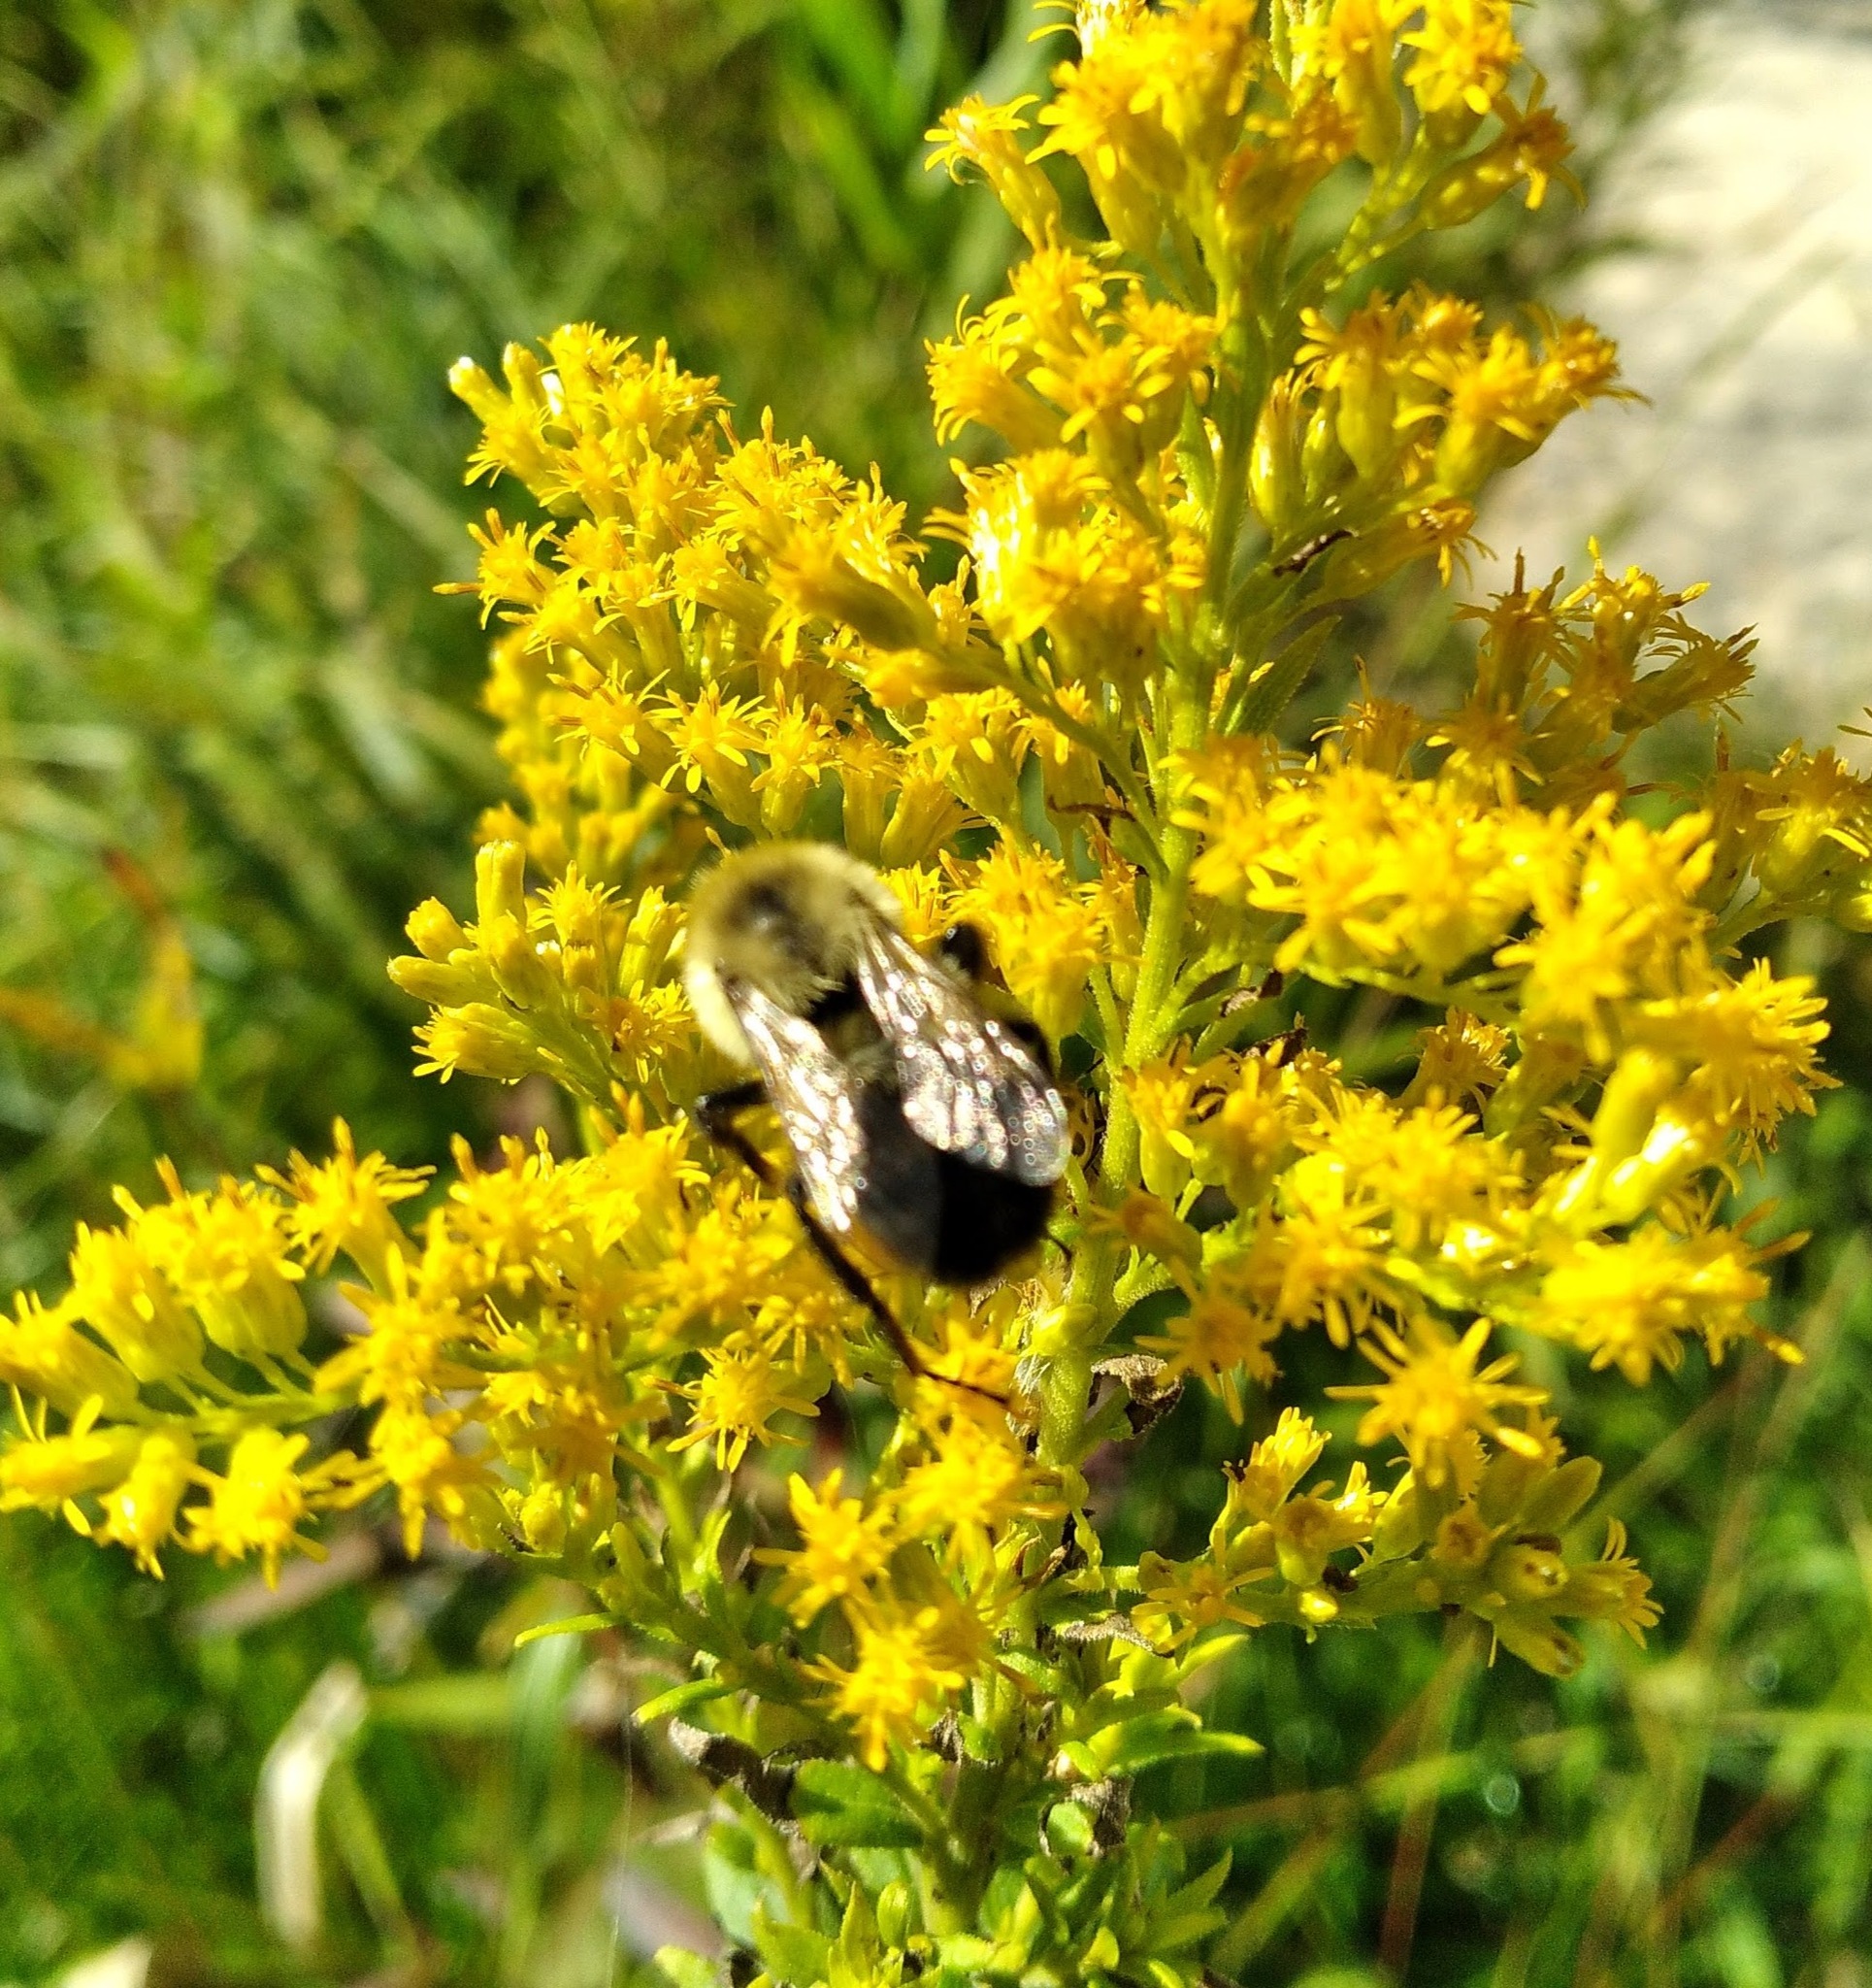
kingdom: Animalia
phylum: Arthropoda
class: Insecta
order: Hymenoptera
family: Apidae
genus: Bombus
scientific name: Bombus impatiens
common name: Common eastern bumble bee
